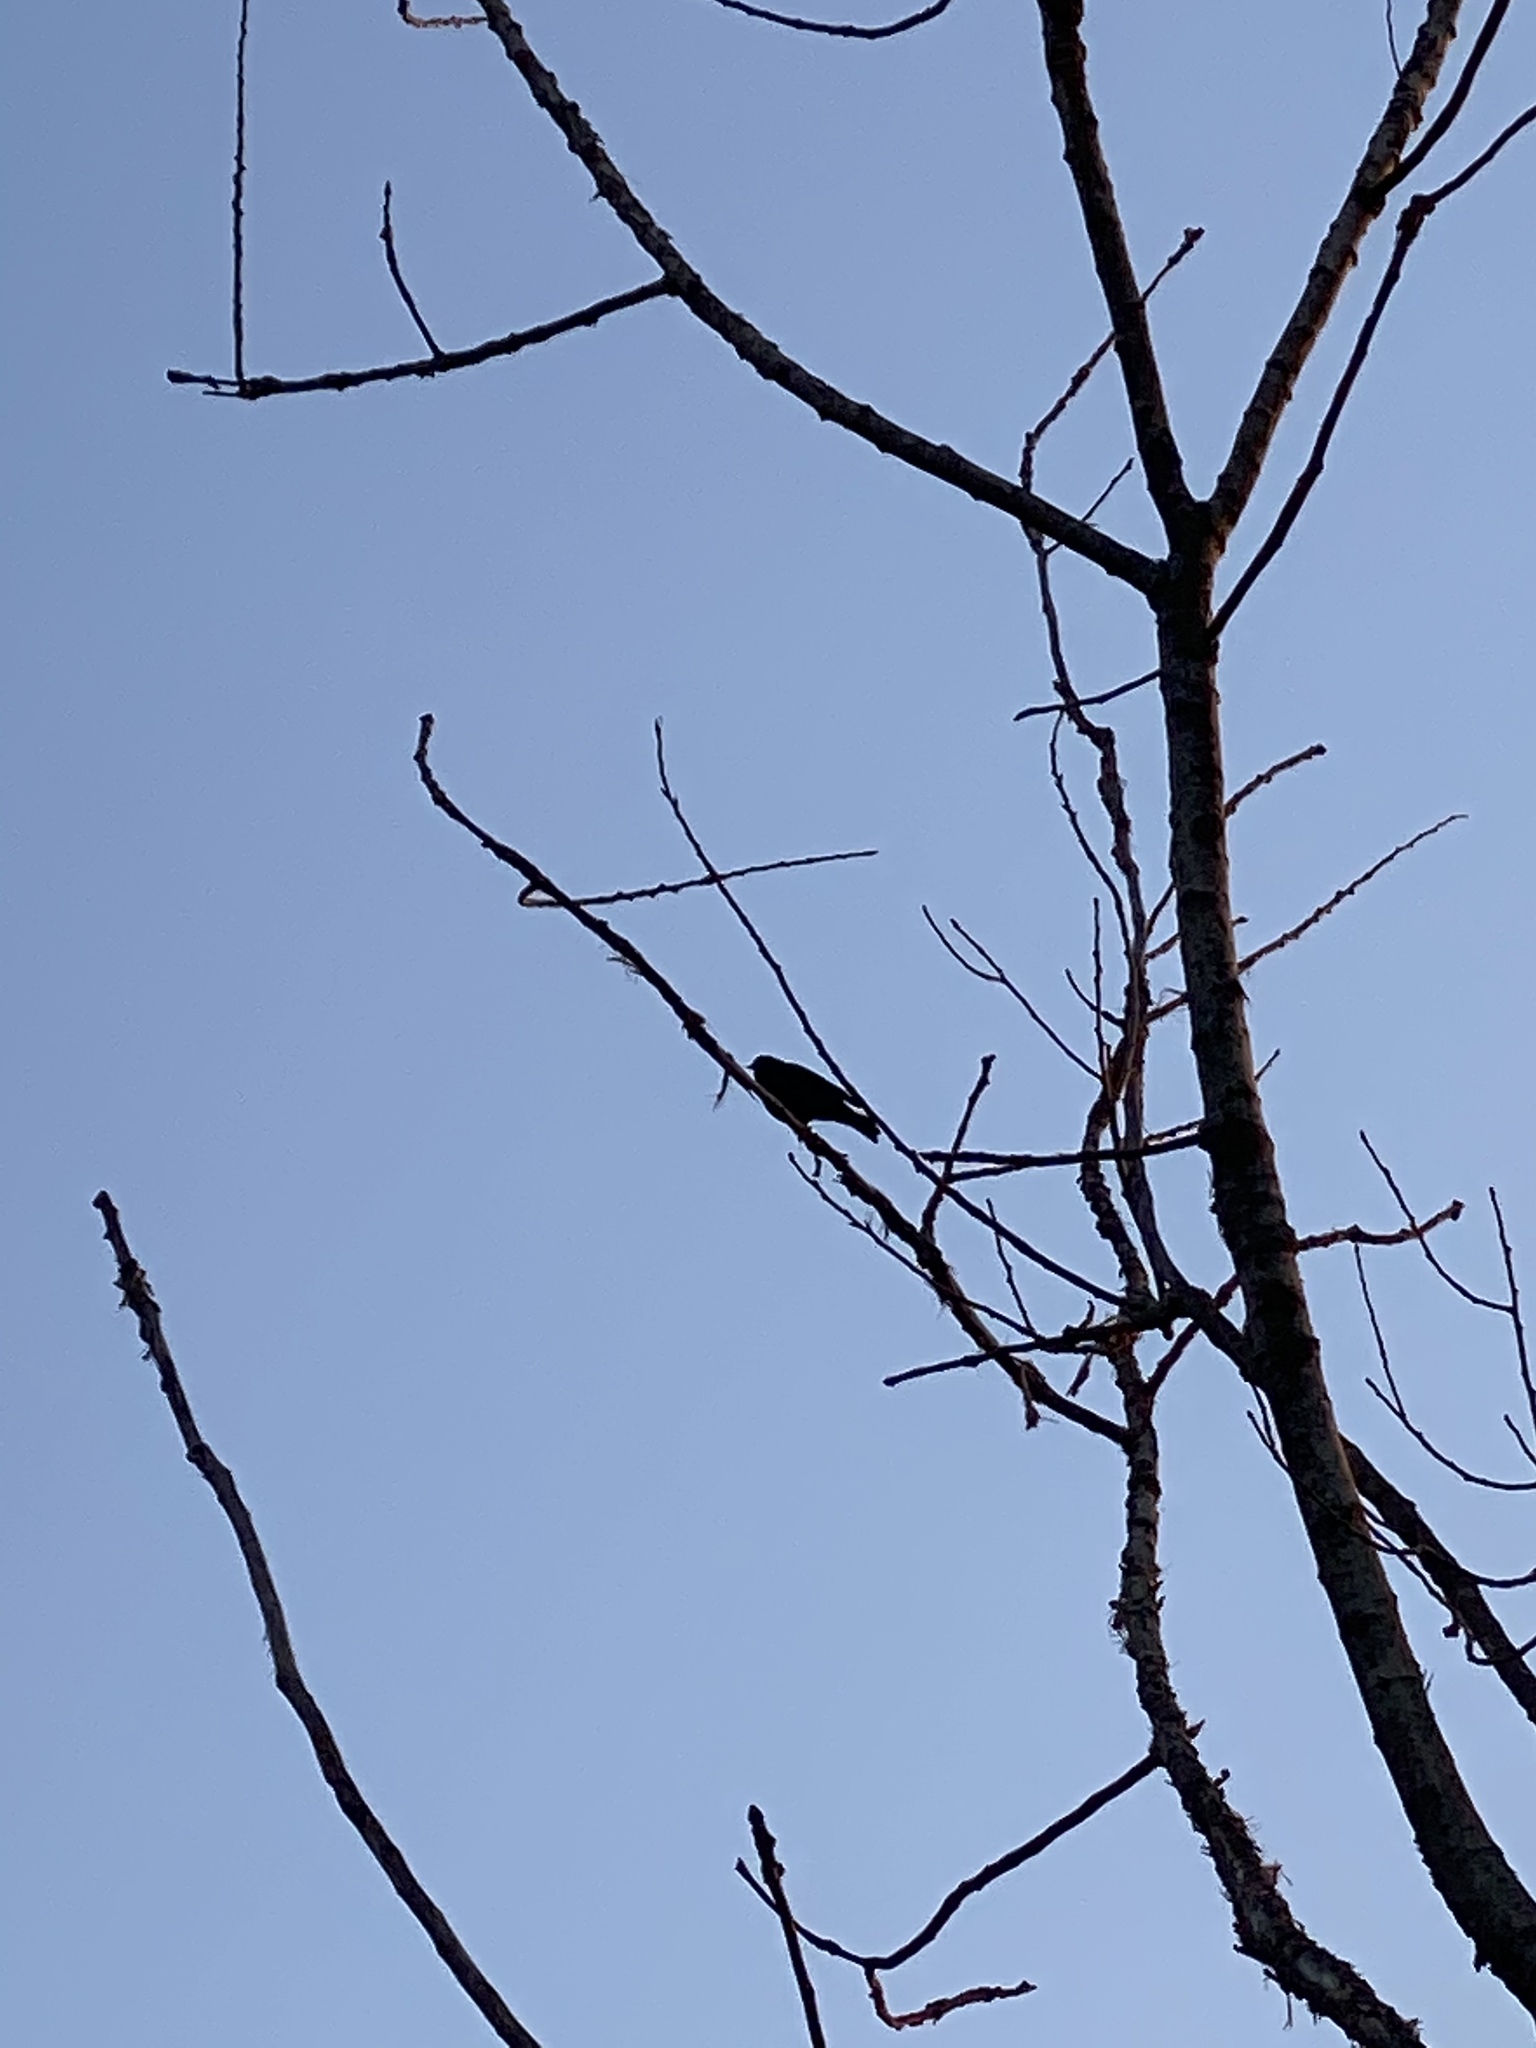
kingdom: Animalia
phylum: Chordata
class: Aves
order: Passeriformes
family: Icteridae
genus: Agelaius
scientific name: Agelaius phoeniceus
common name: Red-winged blackbird
